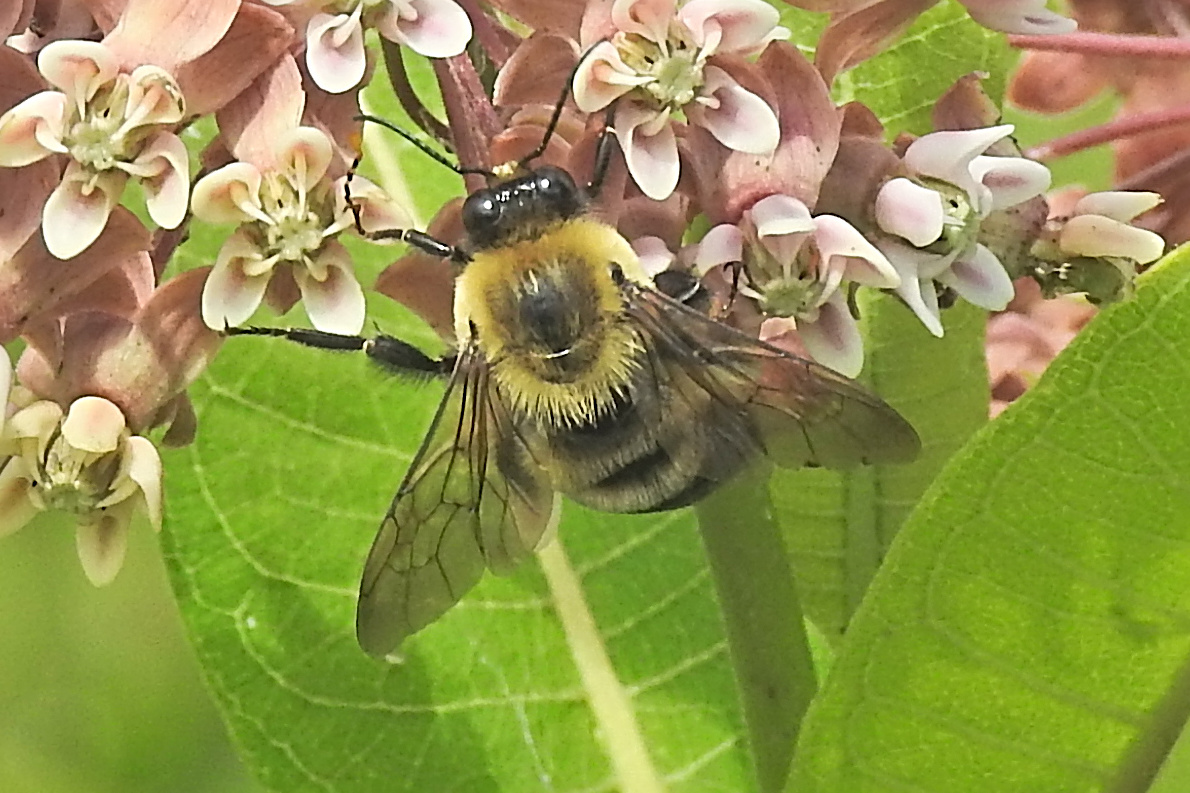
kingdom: Animalia
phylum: Arthropoda
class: Insecta
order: Hymenoptera
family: Apidae
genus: Bombus
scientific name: Bombus griseocollis
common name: Brown-belted bumble bee
